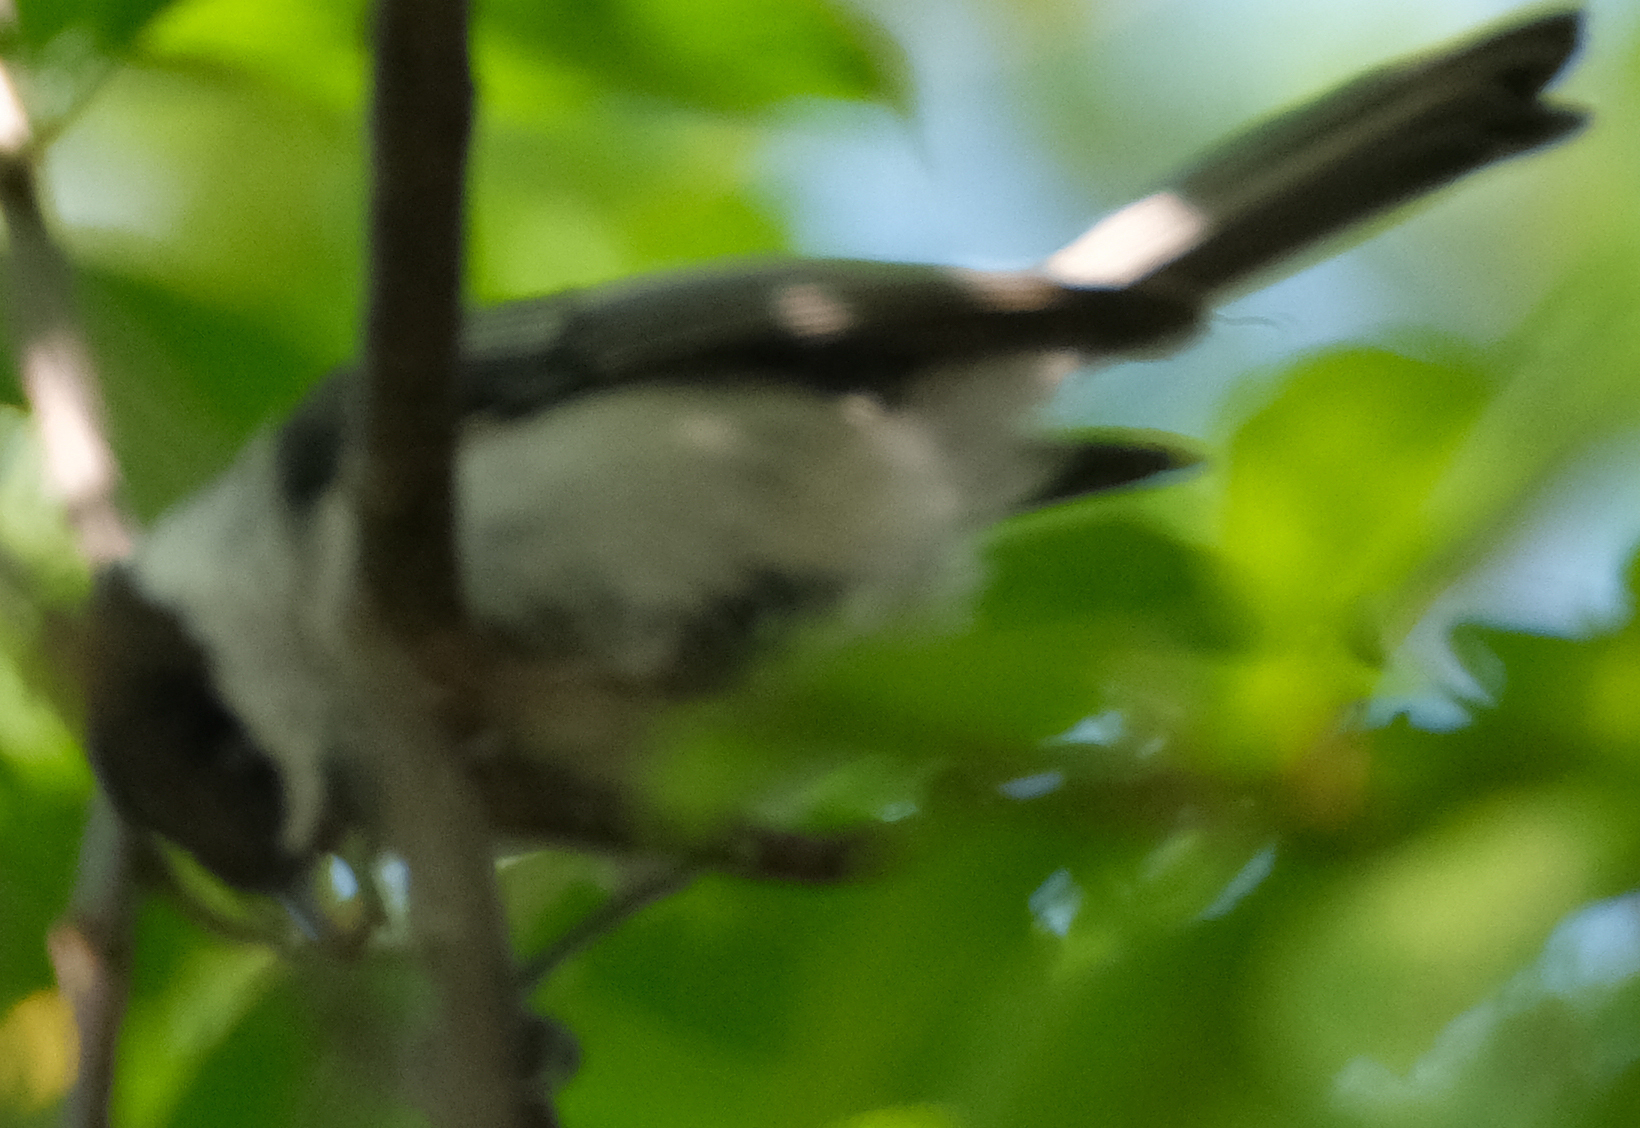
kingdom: Animalia
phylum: Chordata
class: Aves
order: Passeriformes
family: Paridae
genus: Poecile
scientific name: Poecile atricapillus
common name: Black-capped chickadee
